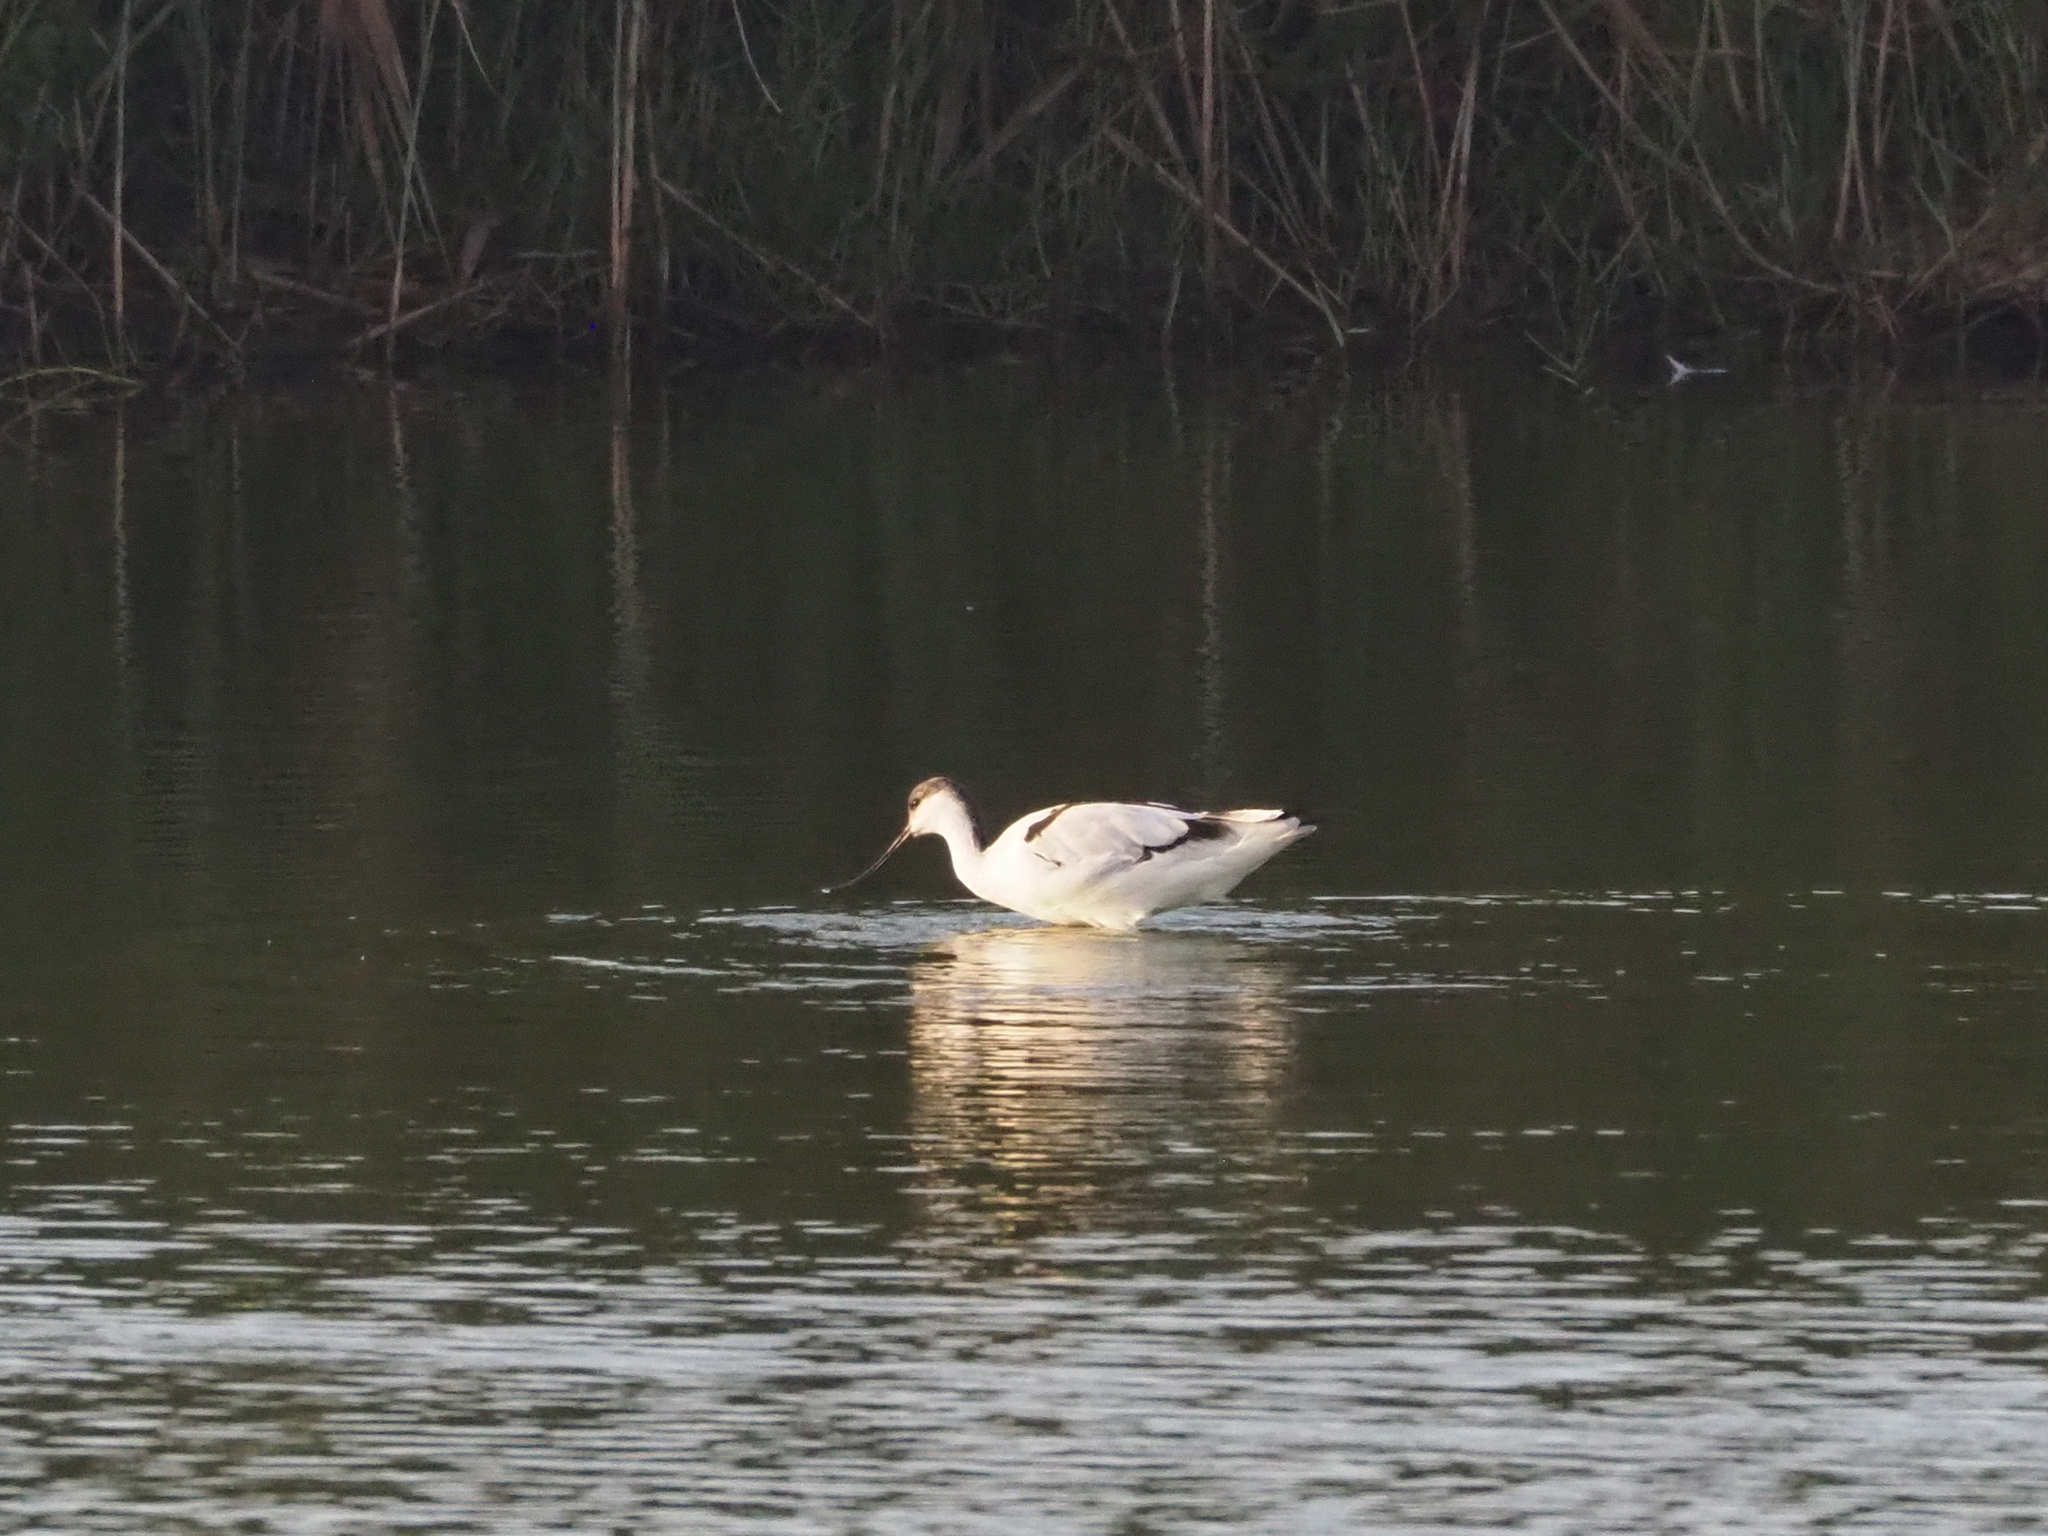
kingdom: Animalia
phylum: Chordata
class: Aves
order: Charadriiformes
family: Recurvirostridae
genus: Recurvirostra
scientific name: Recurvirostra avosetta
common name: Pied avocet
